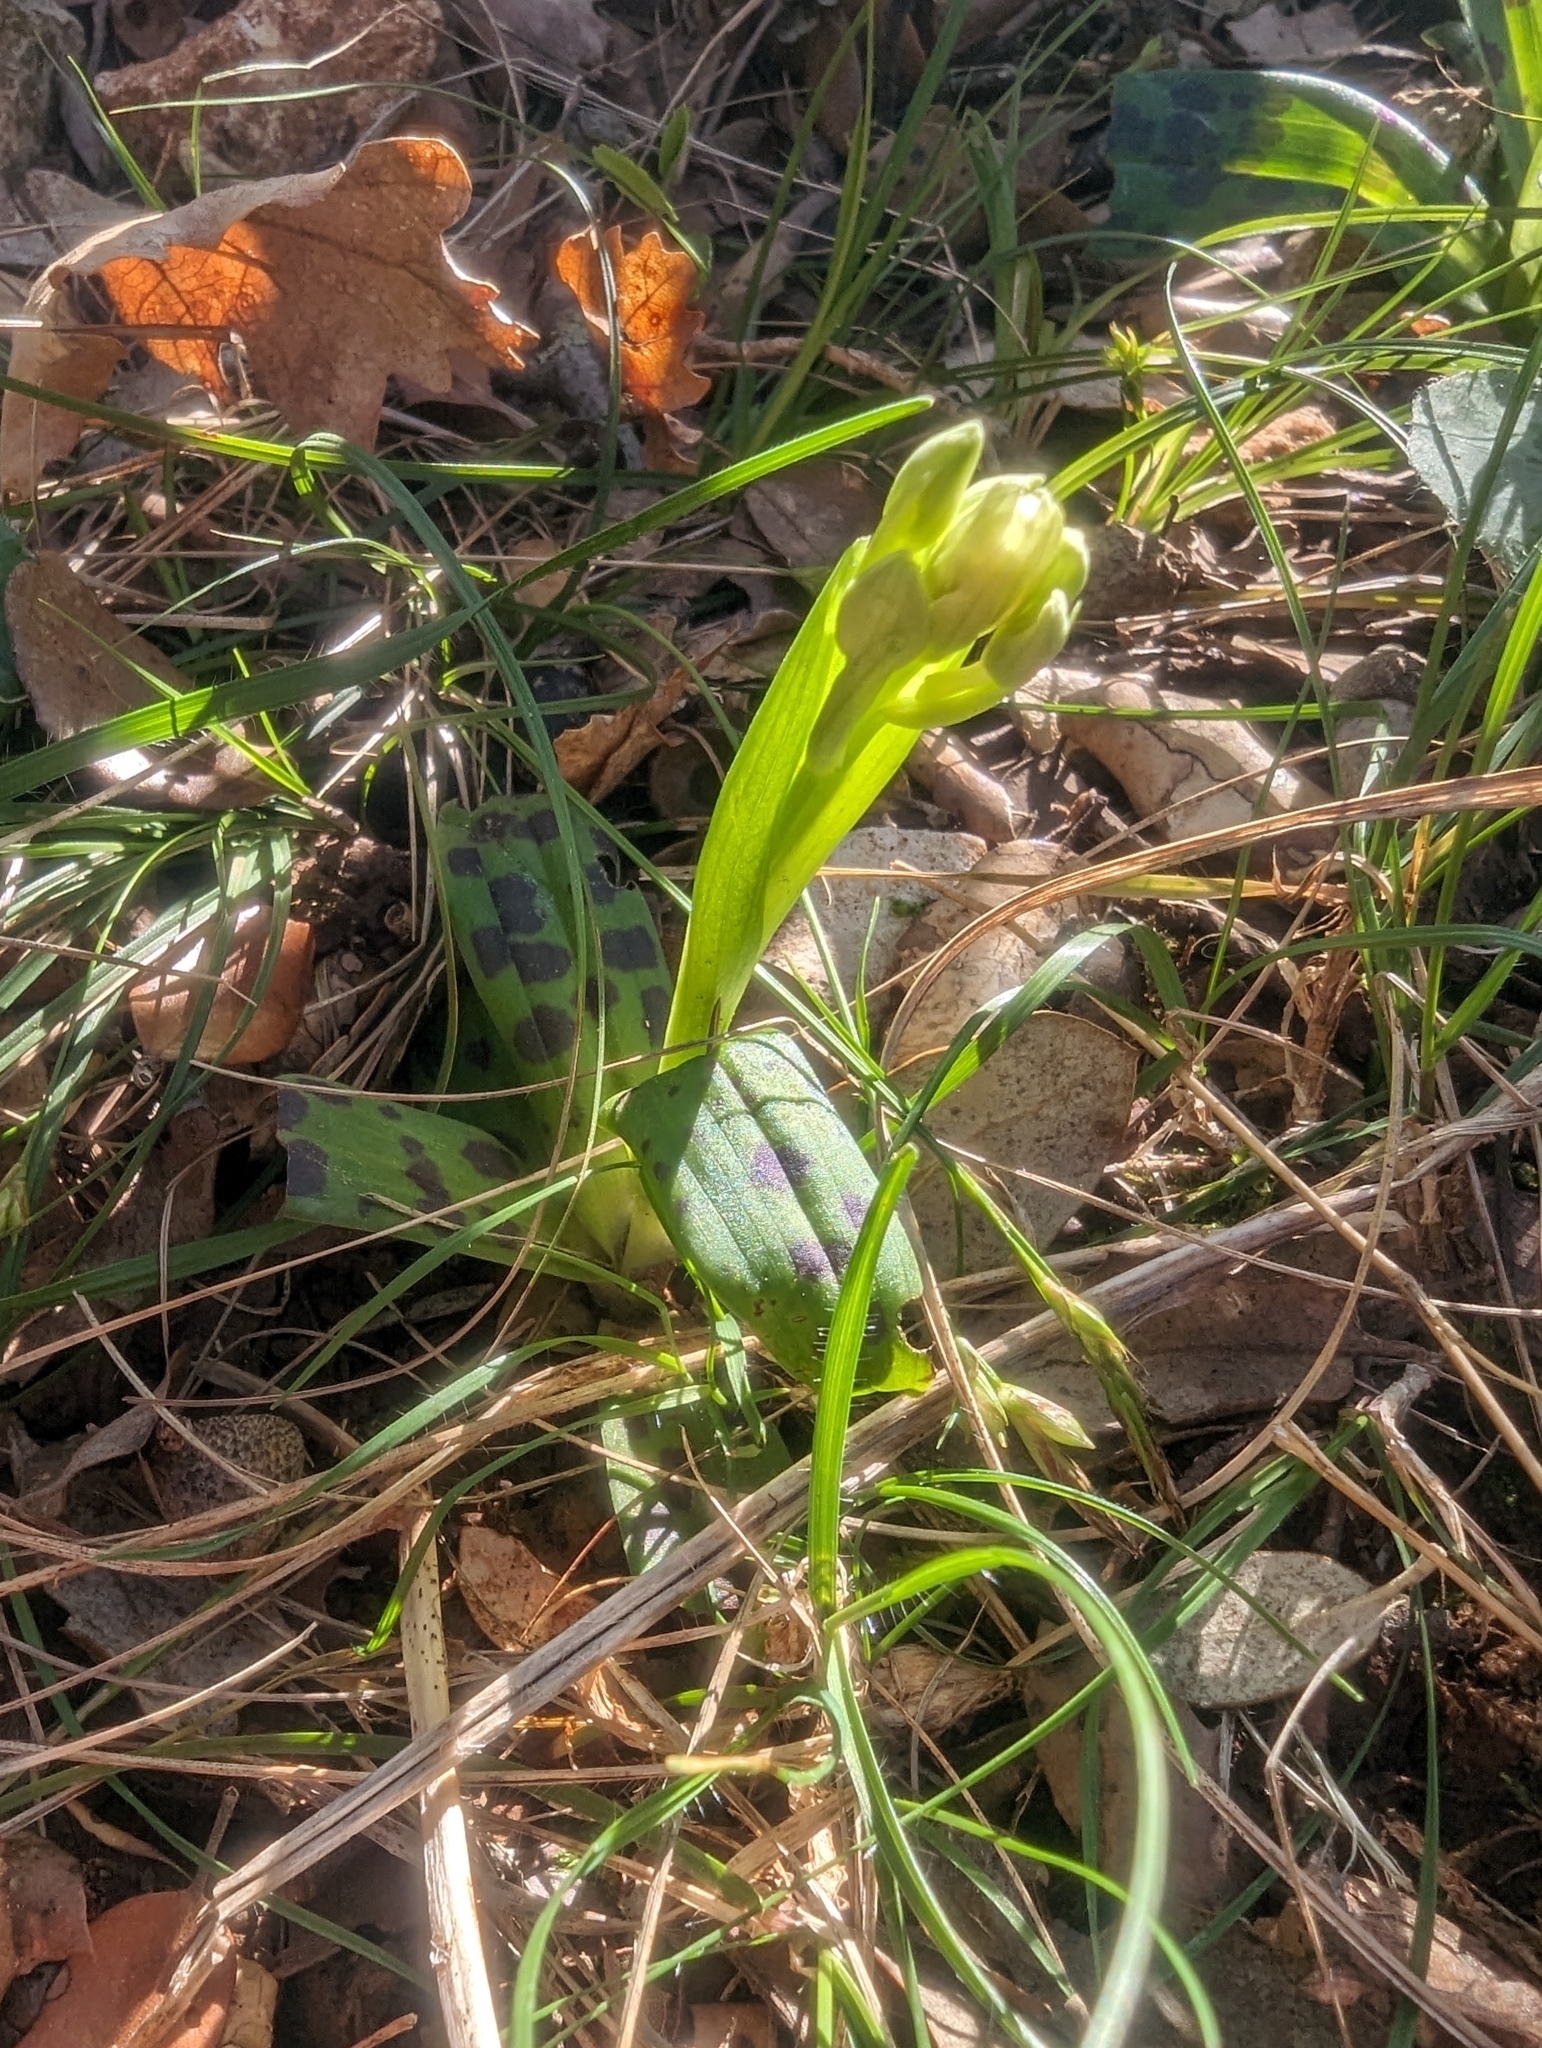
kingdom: Plantae
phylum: Tracheophyta
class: Liliopsida
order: Asparagales
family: Orchidaceae
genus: Orchis
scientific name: Orchis provincialis
